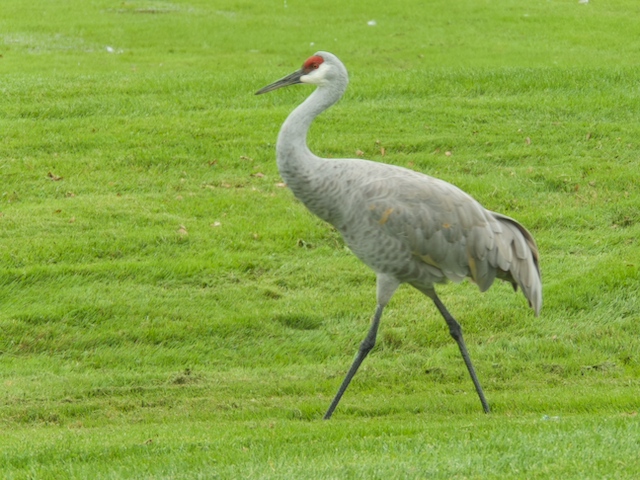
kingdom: Animalia
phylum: Chordata
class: Aves
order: Gruiformes
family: Gruidae
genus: Grus
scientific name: Grus canadensis
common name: Sandhill crane
